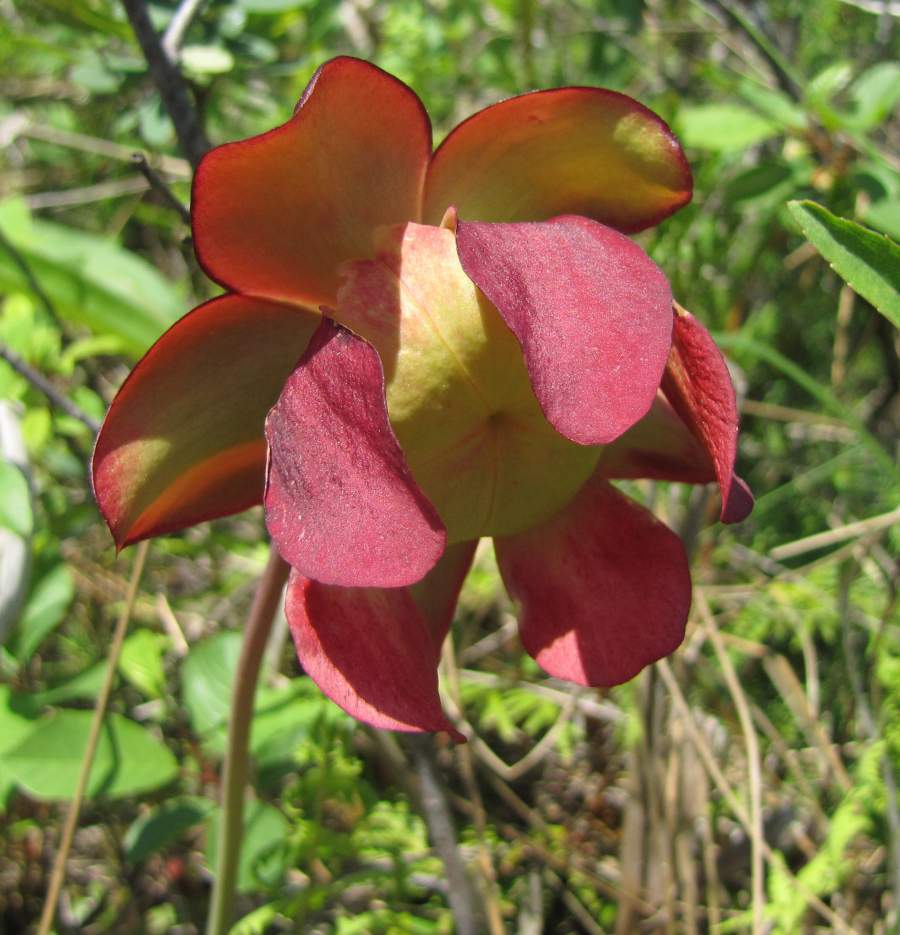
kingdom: Plantae
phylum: Tracheophyta
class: Magnoliopsida
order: Ericales
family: Sarraceniaceae
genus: Sarracenia
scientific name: Sarracenia purpurea
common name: Pitcherplant
